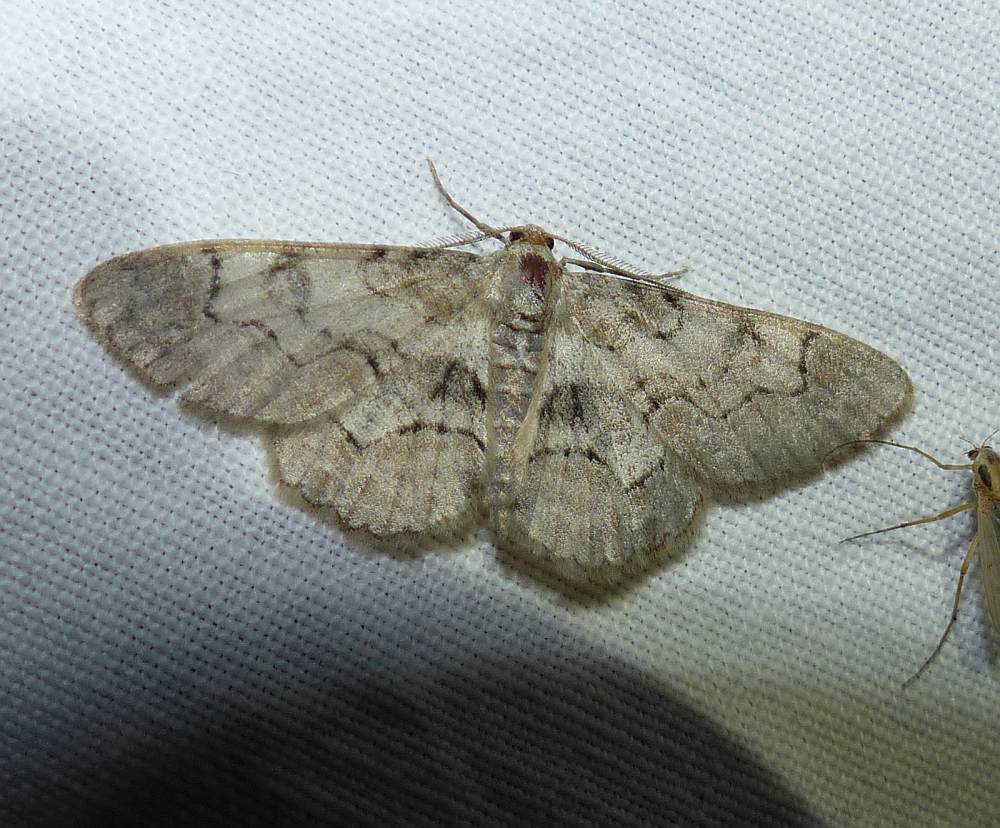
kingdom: Animalia
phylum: Arthropoda
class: Insecta
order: Lepidoptera
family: Geometridae
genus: Iridopsis
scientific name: Iridopsis larvaria
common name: Bent-line gray
